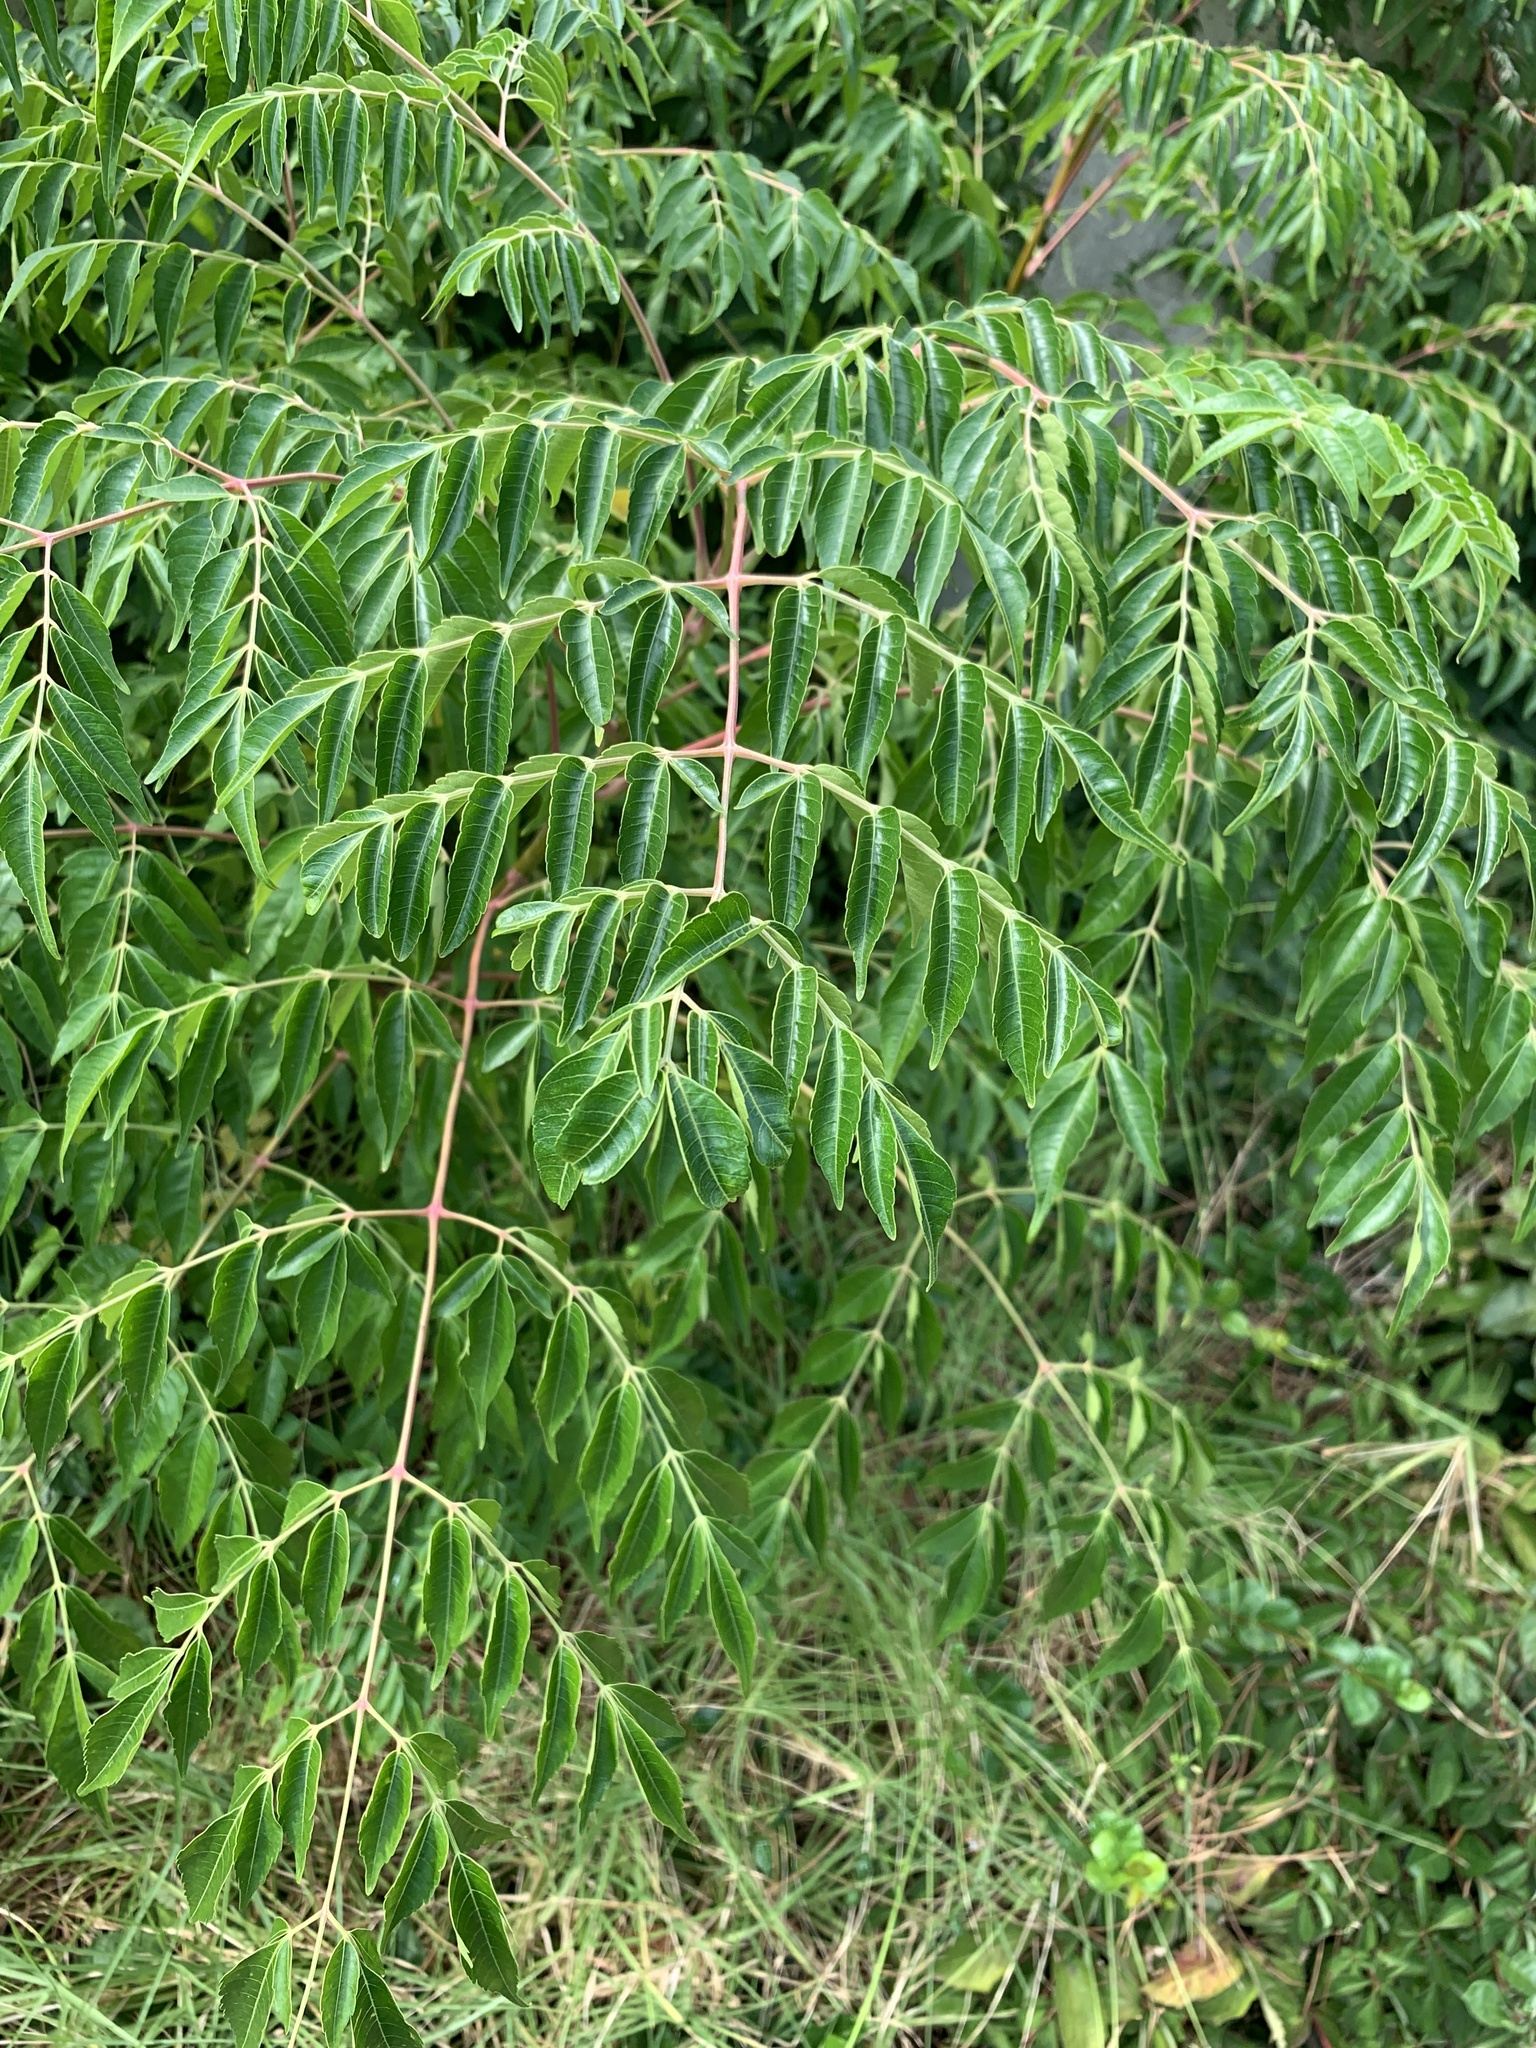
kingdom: Plantae
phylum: Tracheophyta
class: Magnoliopsida
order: Sapindales
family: Meliaceae
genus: Melia
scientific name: Melia azedarach
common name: Chinaberrytree
